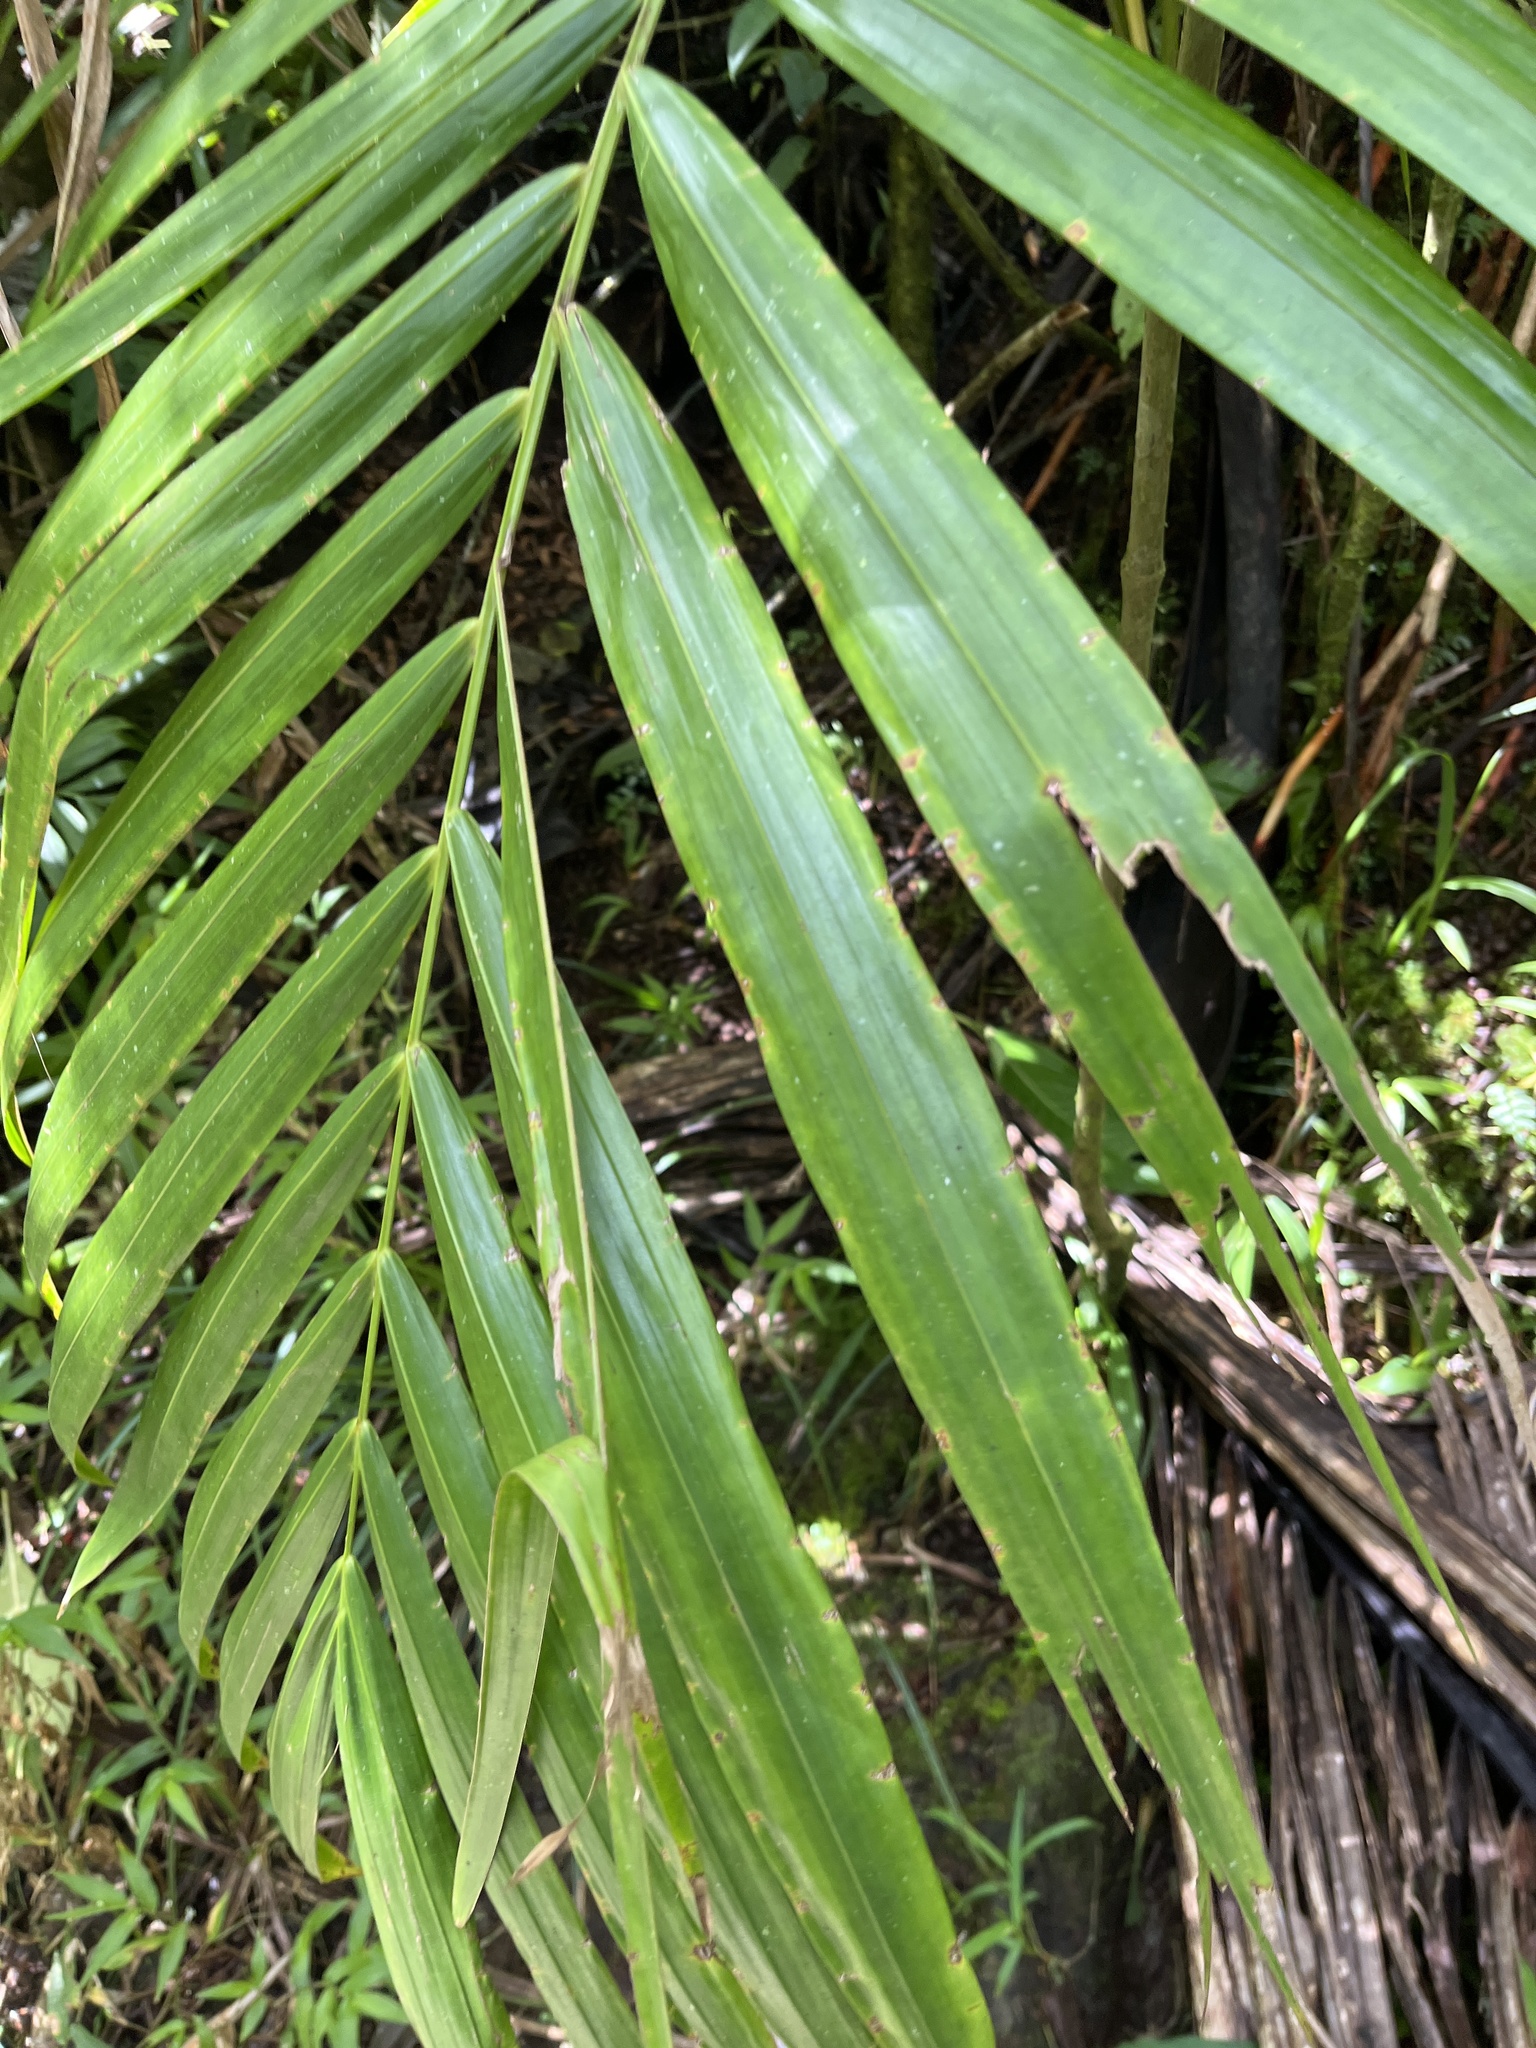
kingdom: Plantae
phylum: Tracheophyta
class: Liliopsida
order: Arecales
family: Arecaceae
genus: Prestoea
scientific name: Prestoea acuminata
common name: Sierran palm
